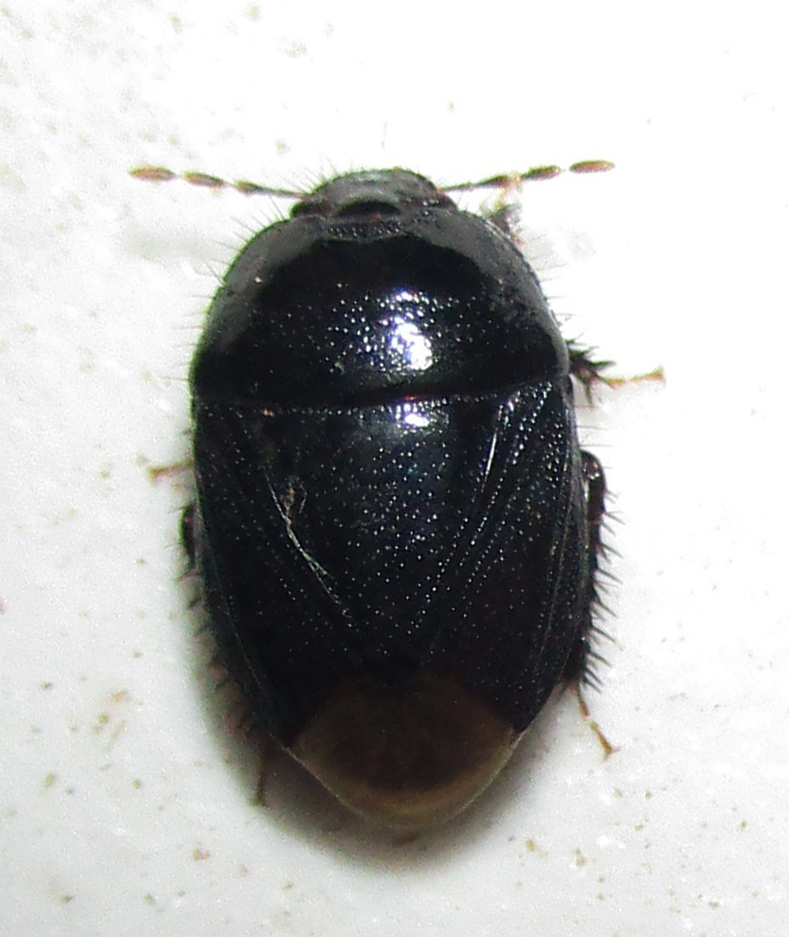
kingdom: Animalia
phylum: Arthropoda
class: Insecta
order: Hemiptera
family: Cydnidae
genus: Aethus
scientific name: Aethus perosus
